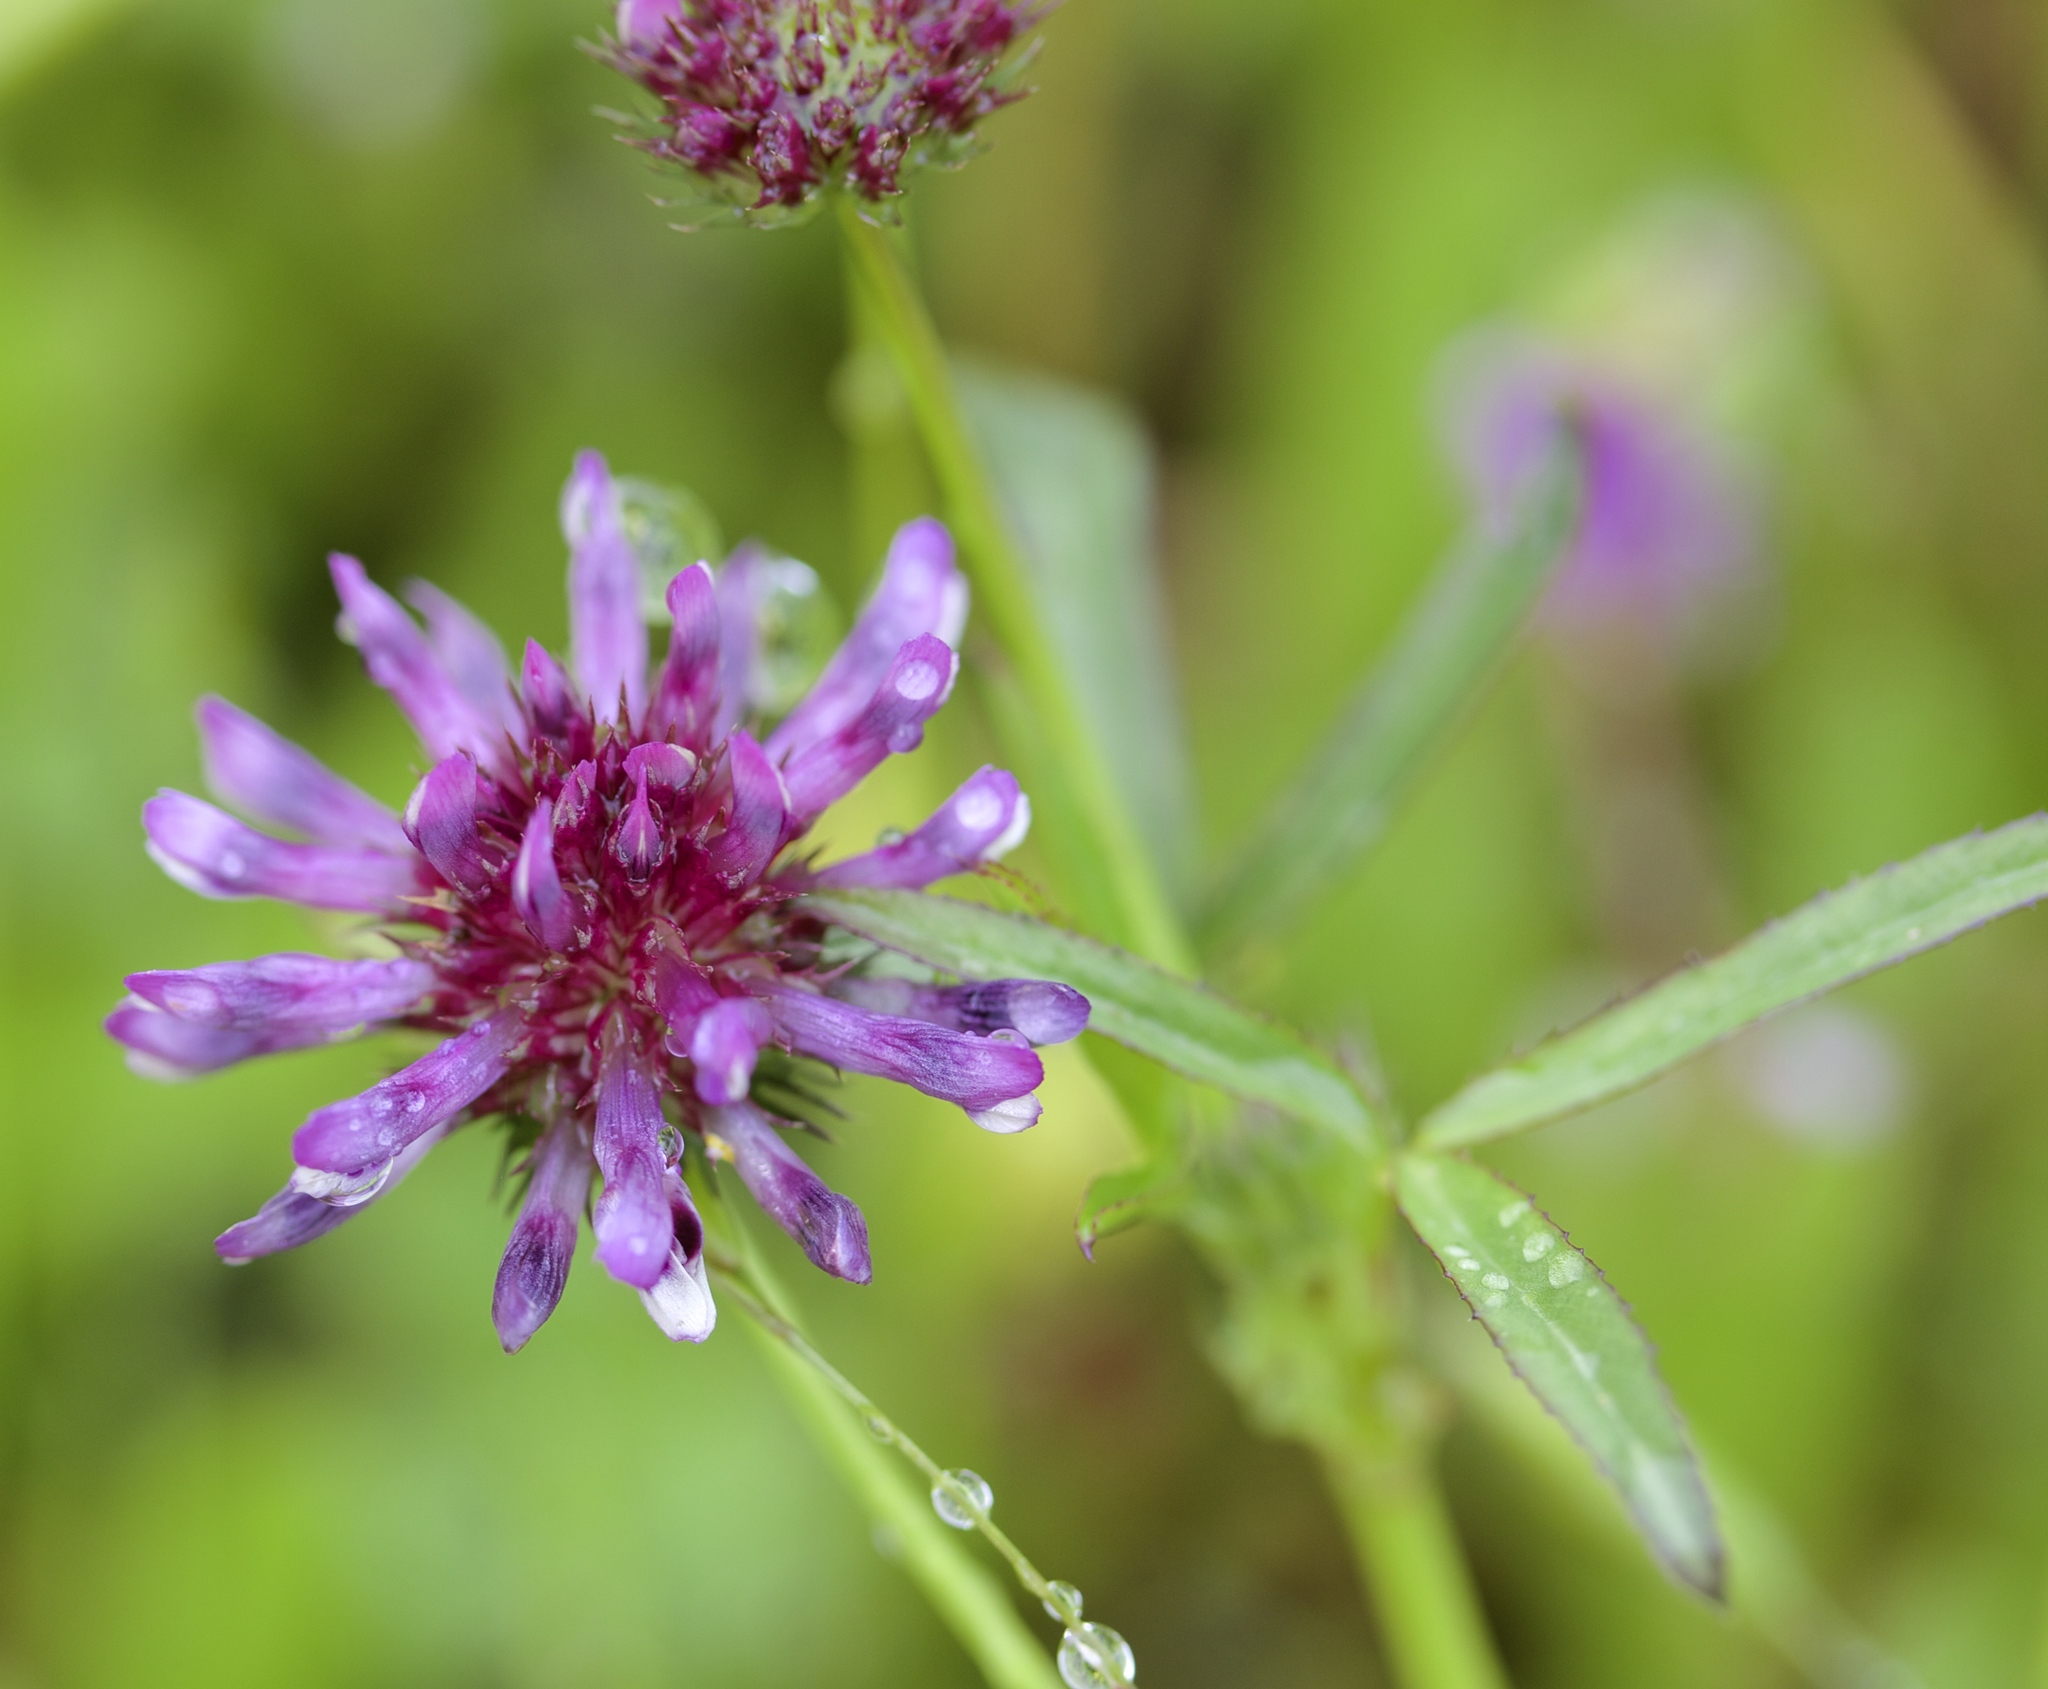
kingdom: Plantae
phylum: Tracheophyta
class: Magnoliopsida
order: Fabales
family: Fabaceae
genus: Trifolium
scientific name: Trifolium willdenovii
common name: Tomcat clover
